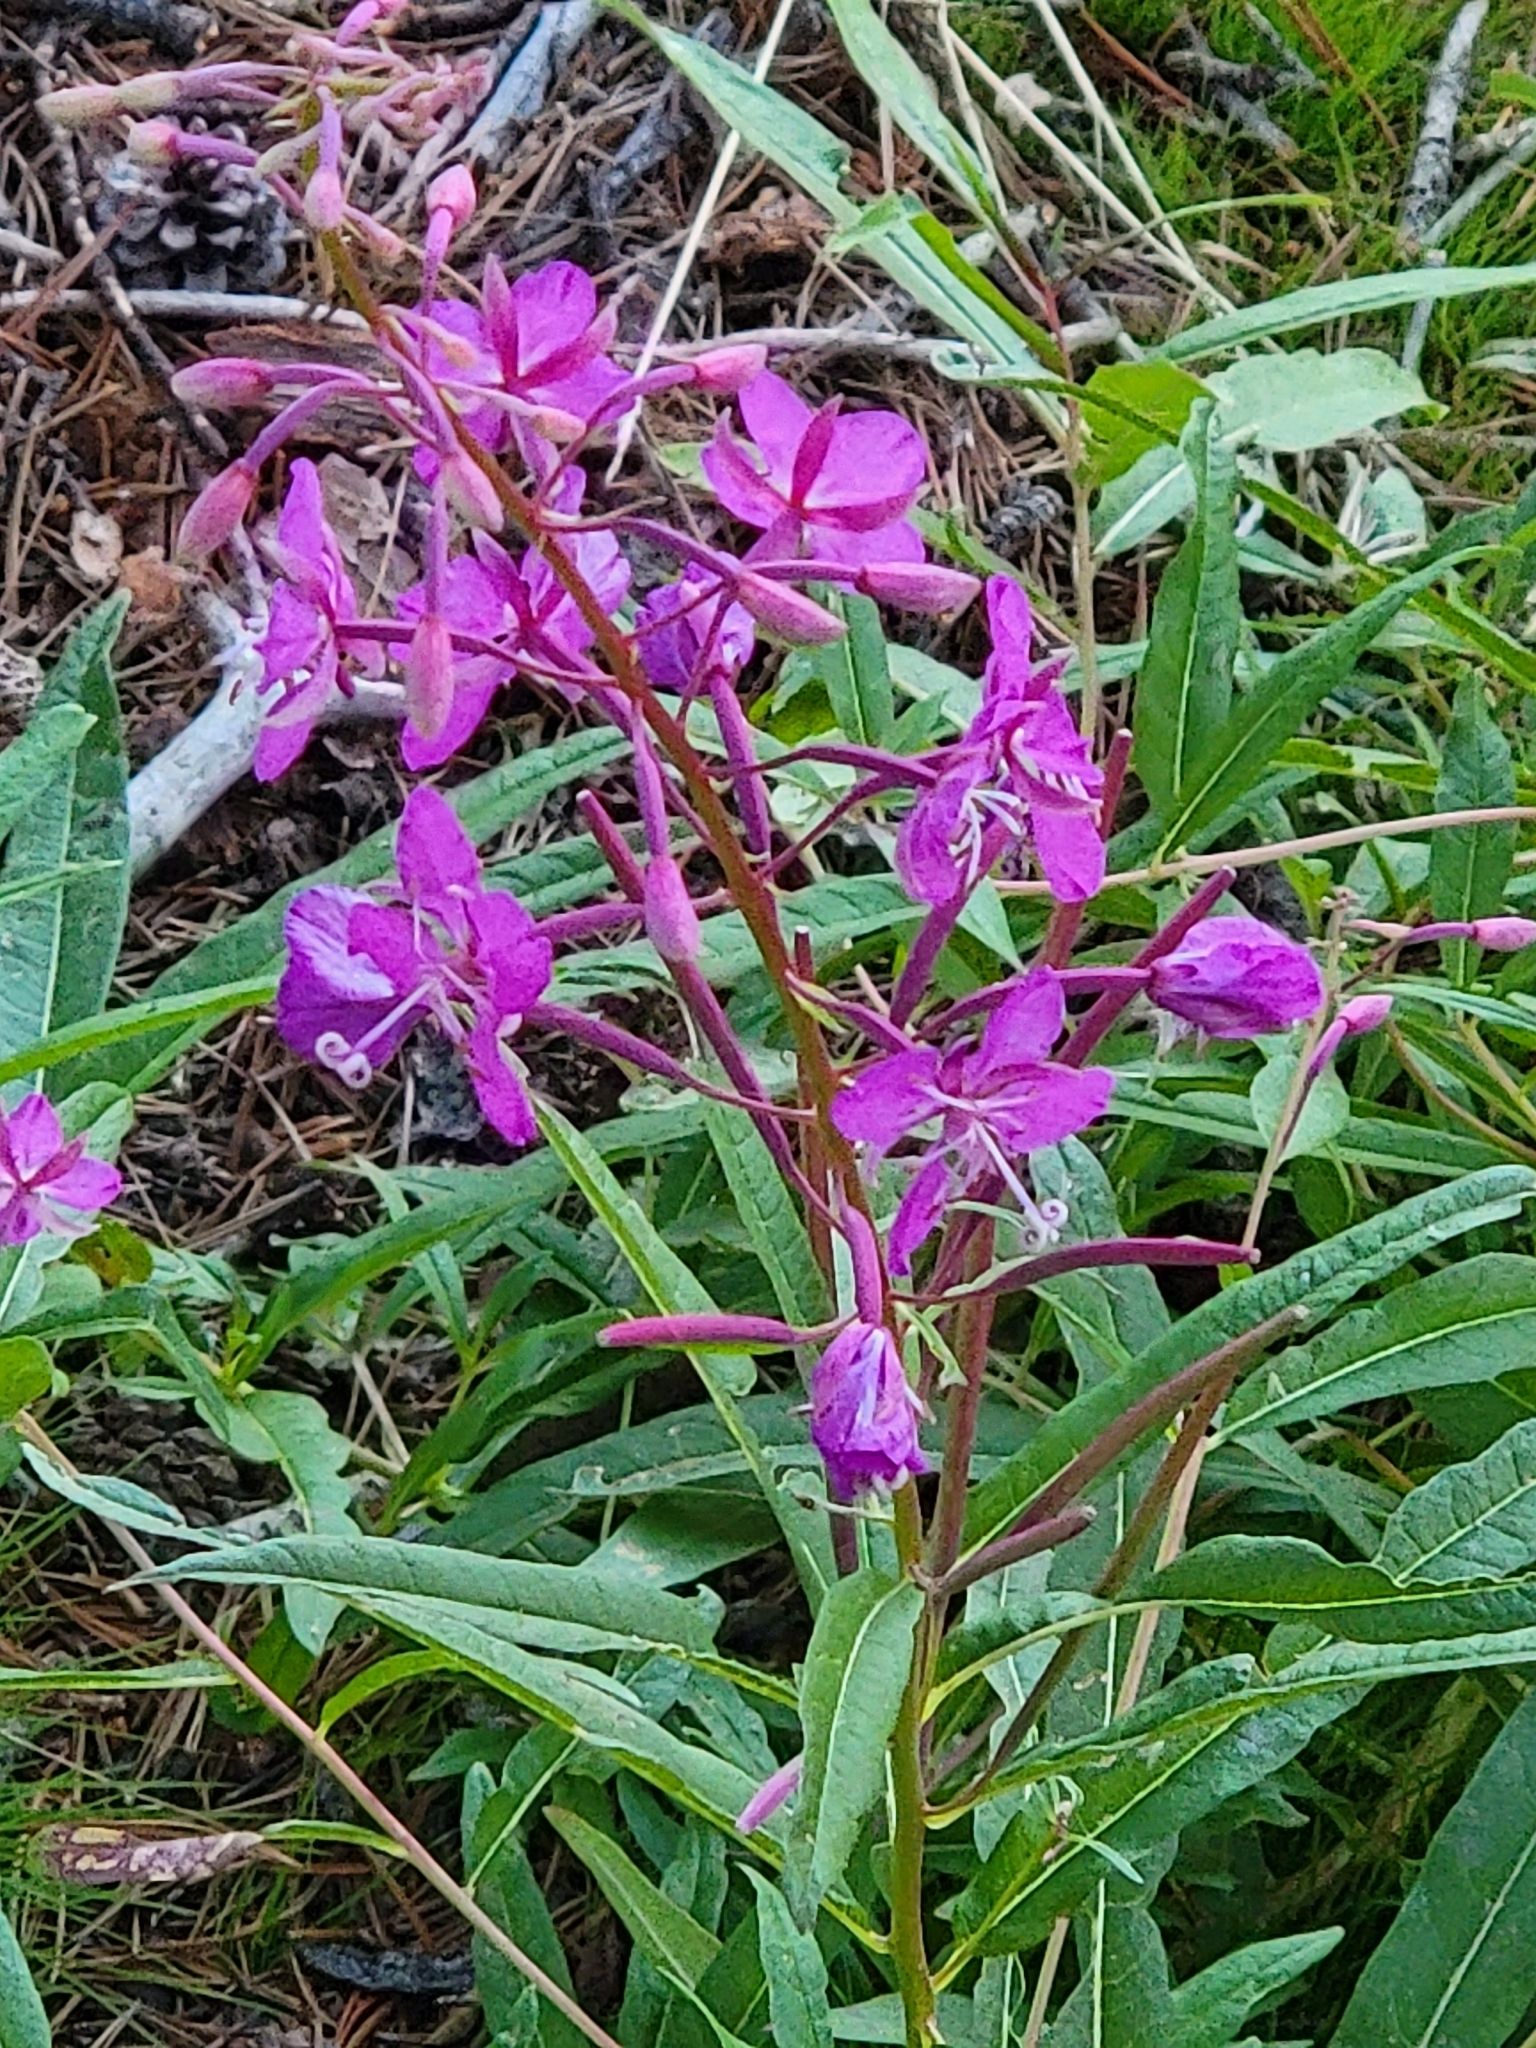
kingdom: Plantae
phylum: Tracheophyta
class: Magnoliopsida
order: Myrtales
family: Onagraceae
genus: Chamaenerion
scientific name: Chamaenerion angustifolium
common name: Fireweed
